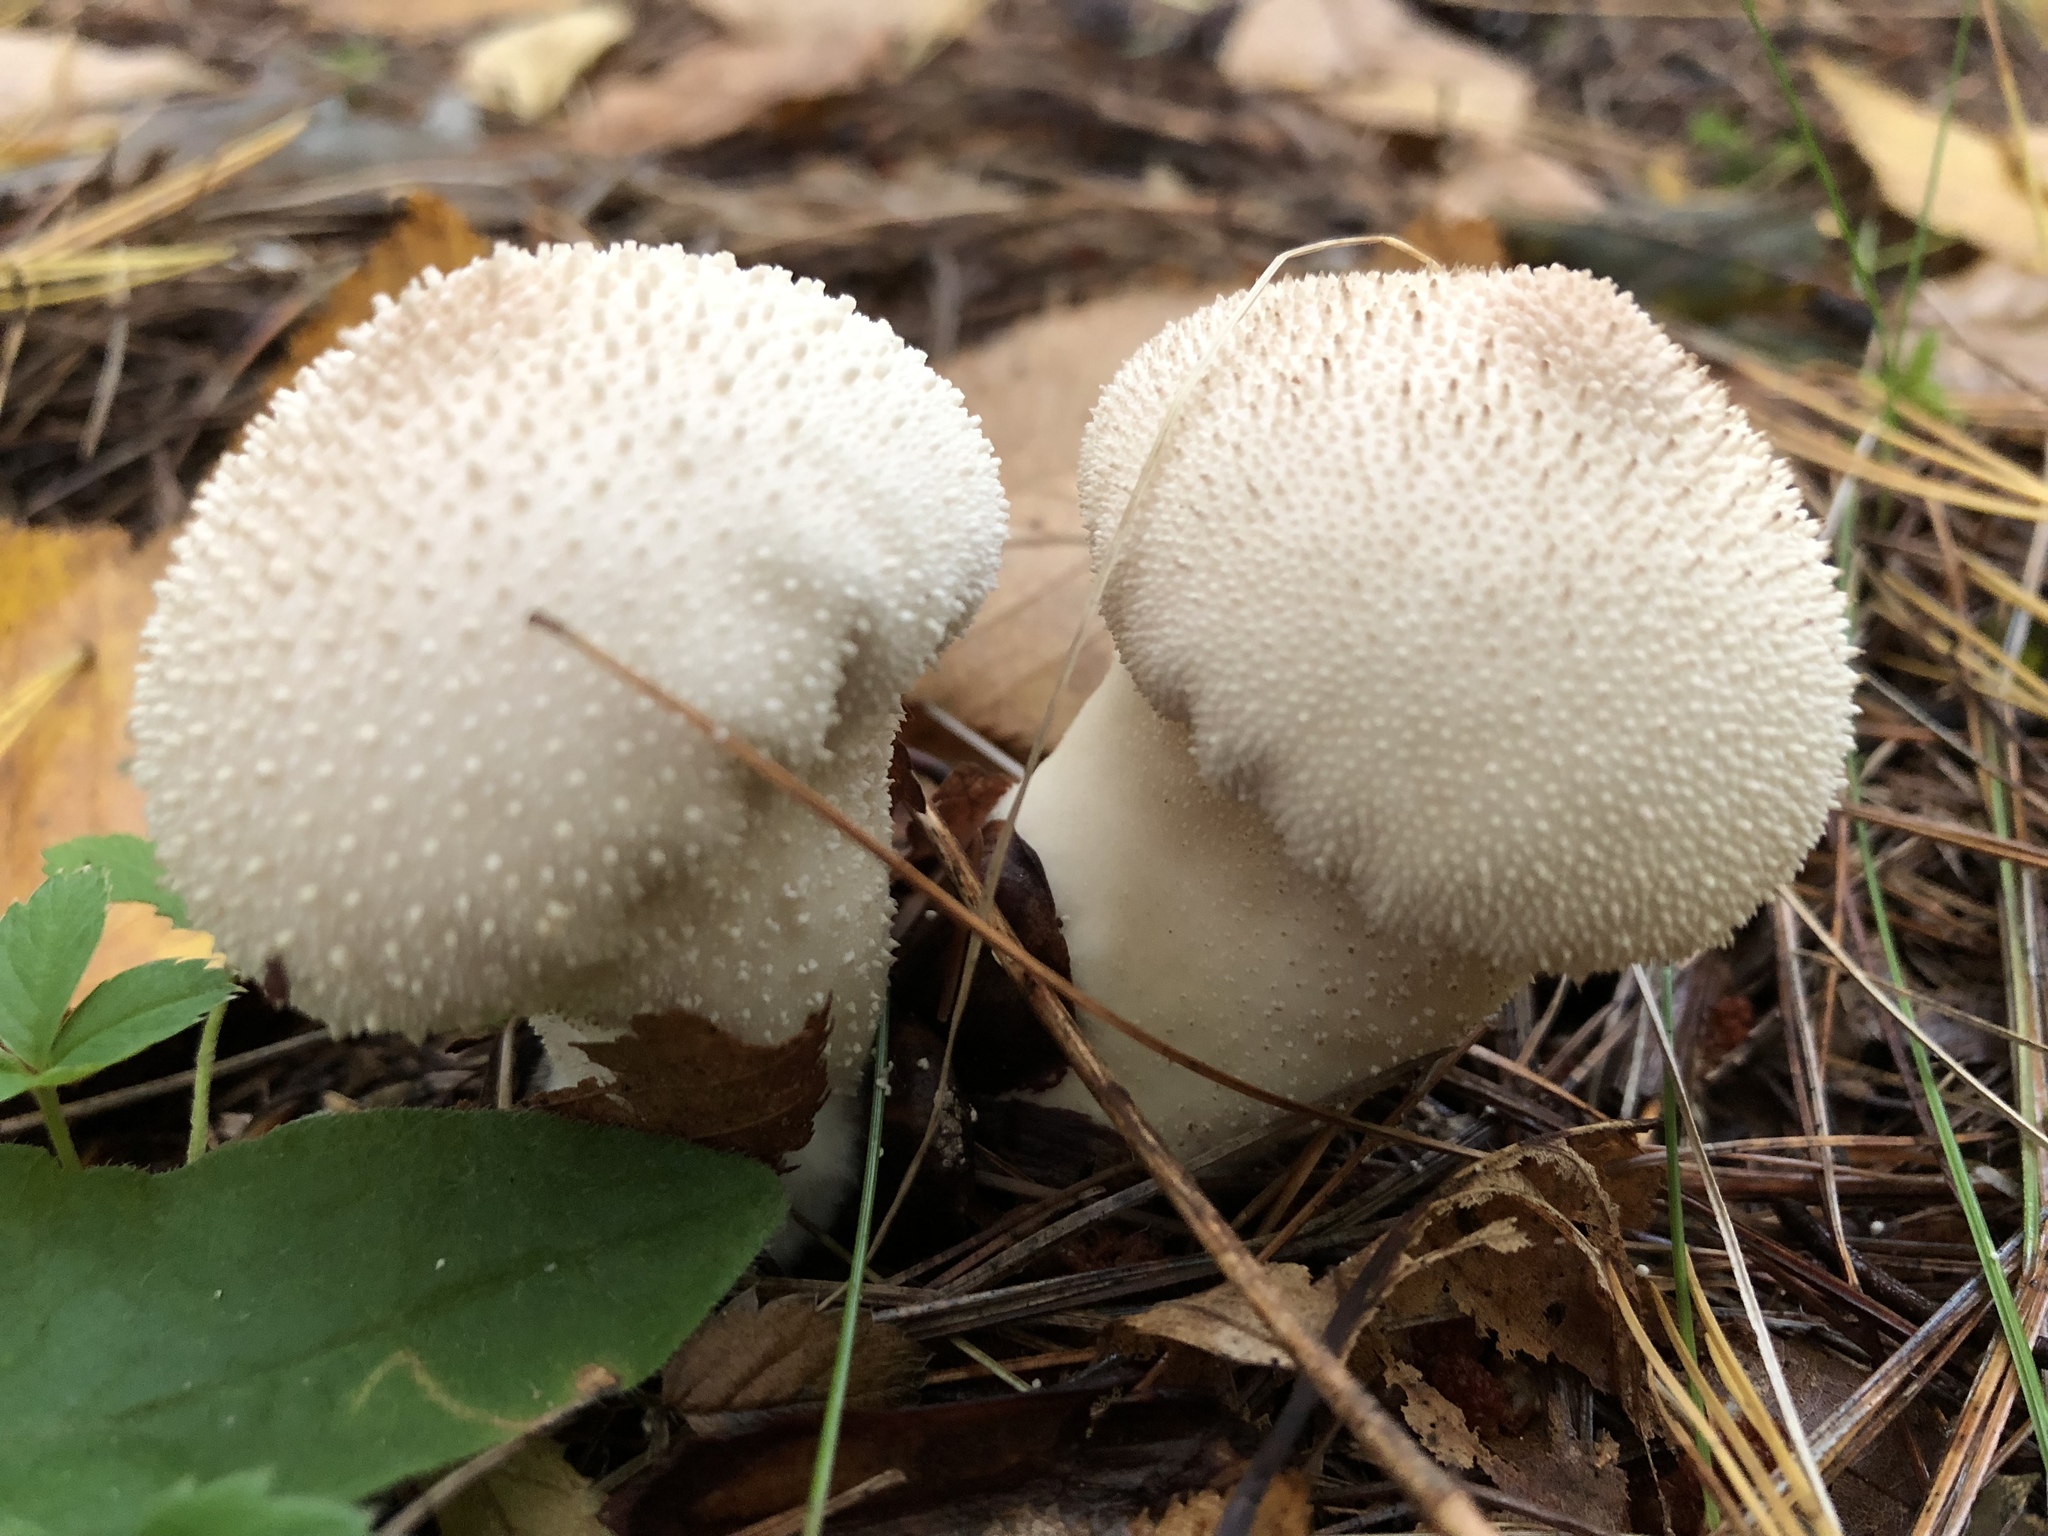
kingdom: Fungi
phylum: Basidiomycota
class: Agaricomycetes
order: Agaricales
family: Lycoperdaceae
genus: Lycoperdon
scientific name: Lycoperdon perlatum
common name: Common puffball
